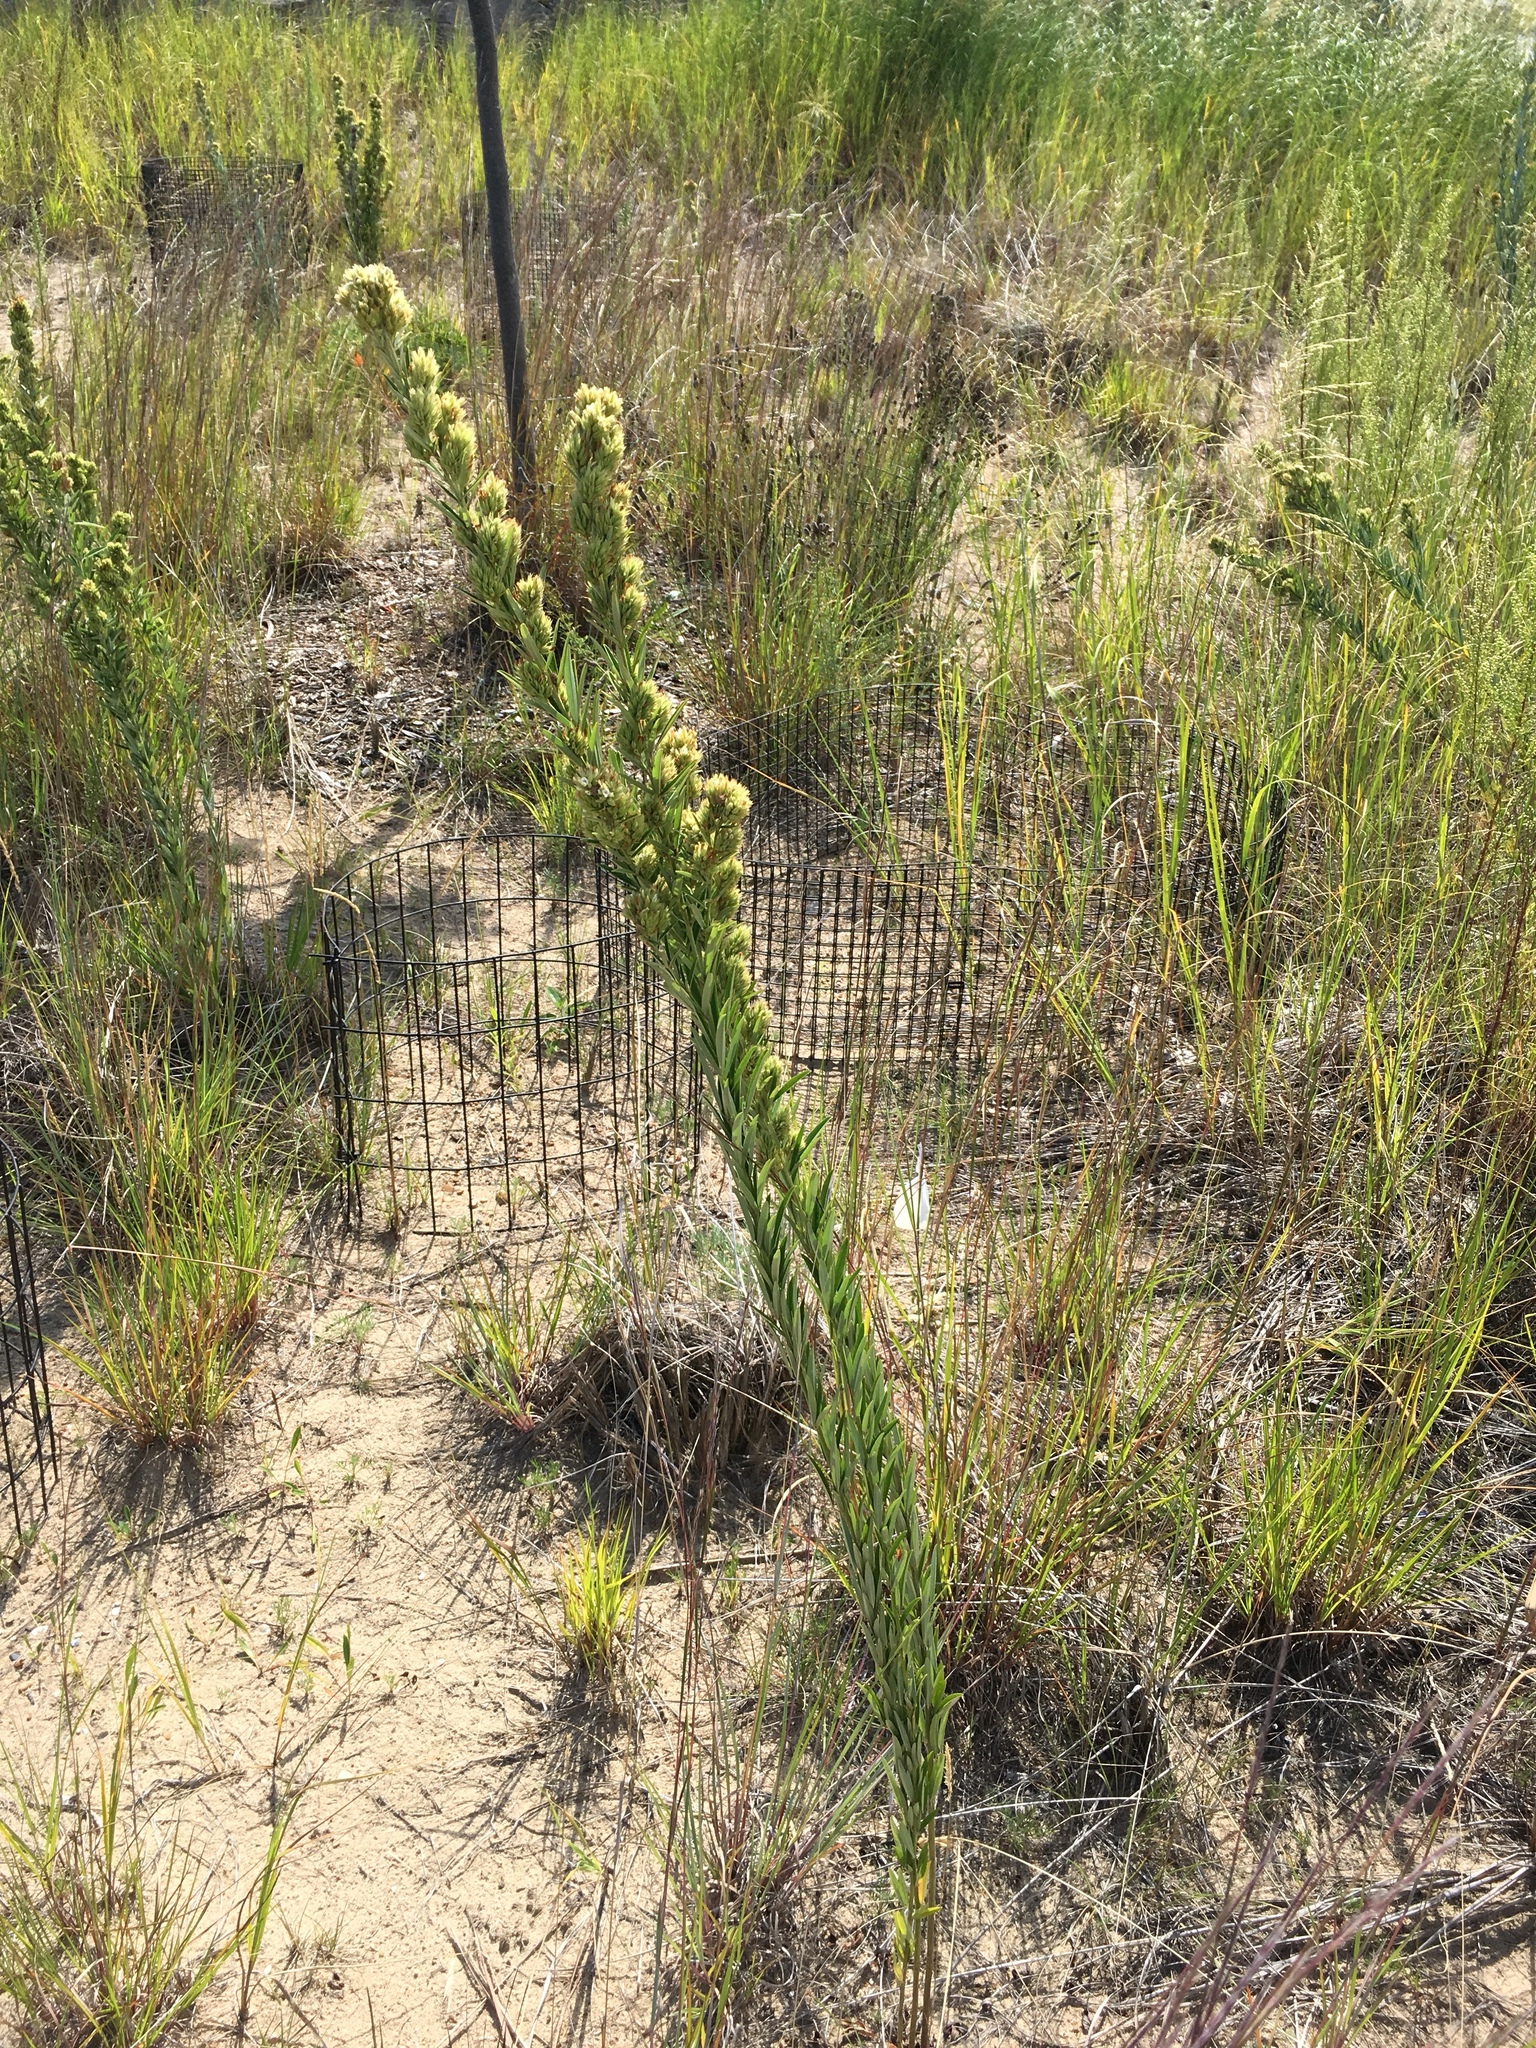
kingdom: Plantae
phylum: Tracheophyta
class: Magnoliopsida
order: Fabales
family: Fabaceae
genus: Lespedeza
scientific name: Lespedeza capitata
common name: Dusty clover
